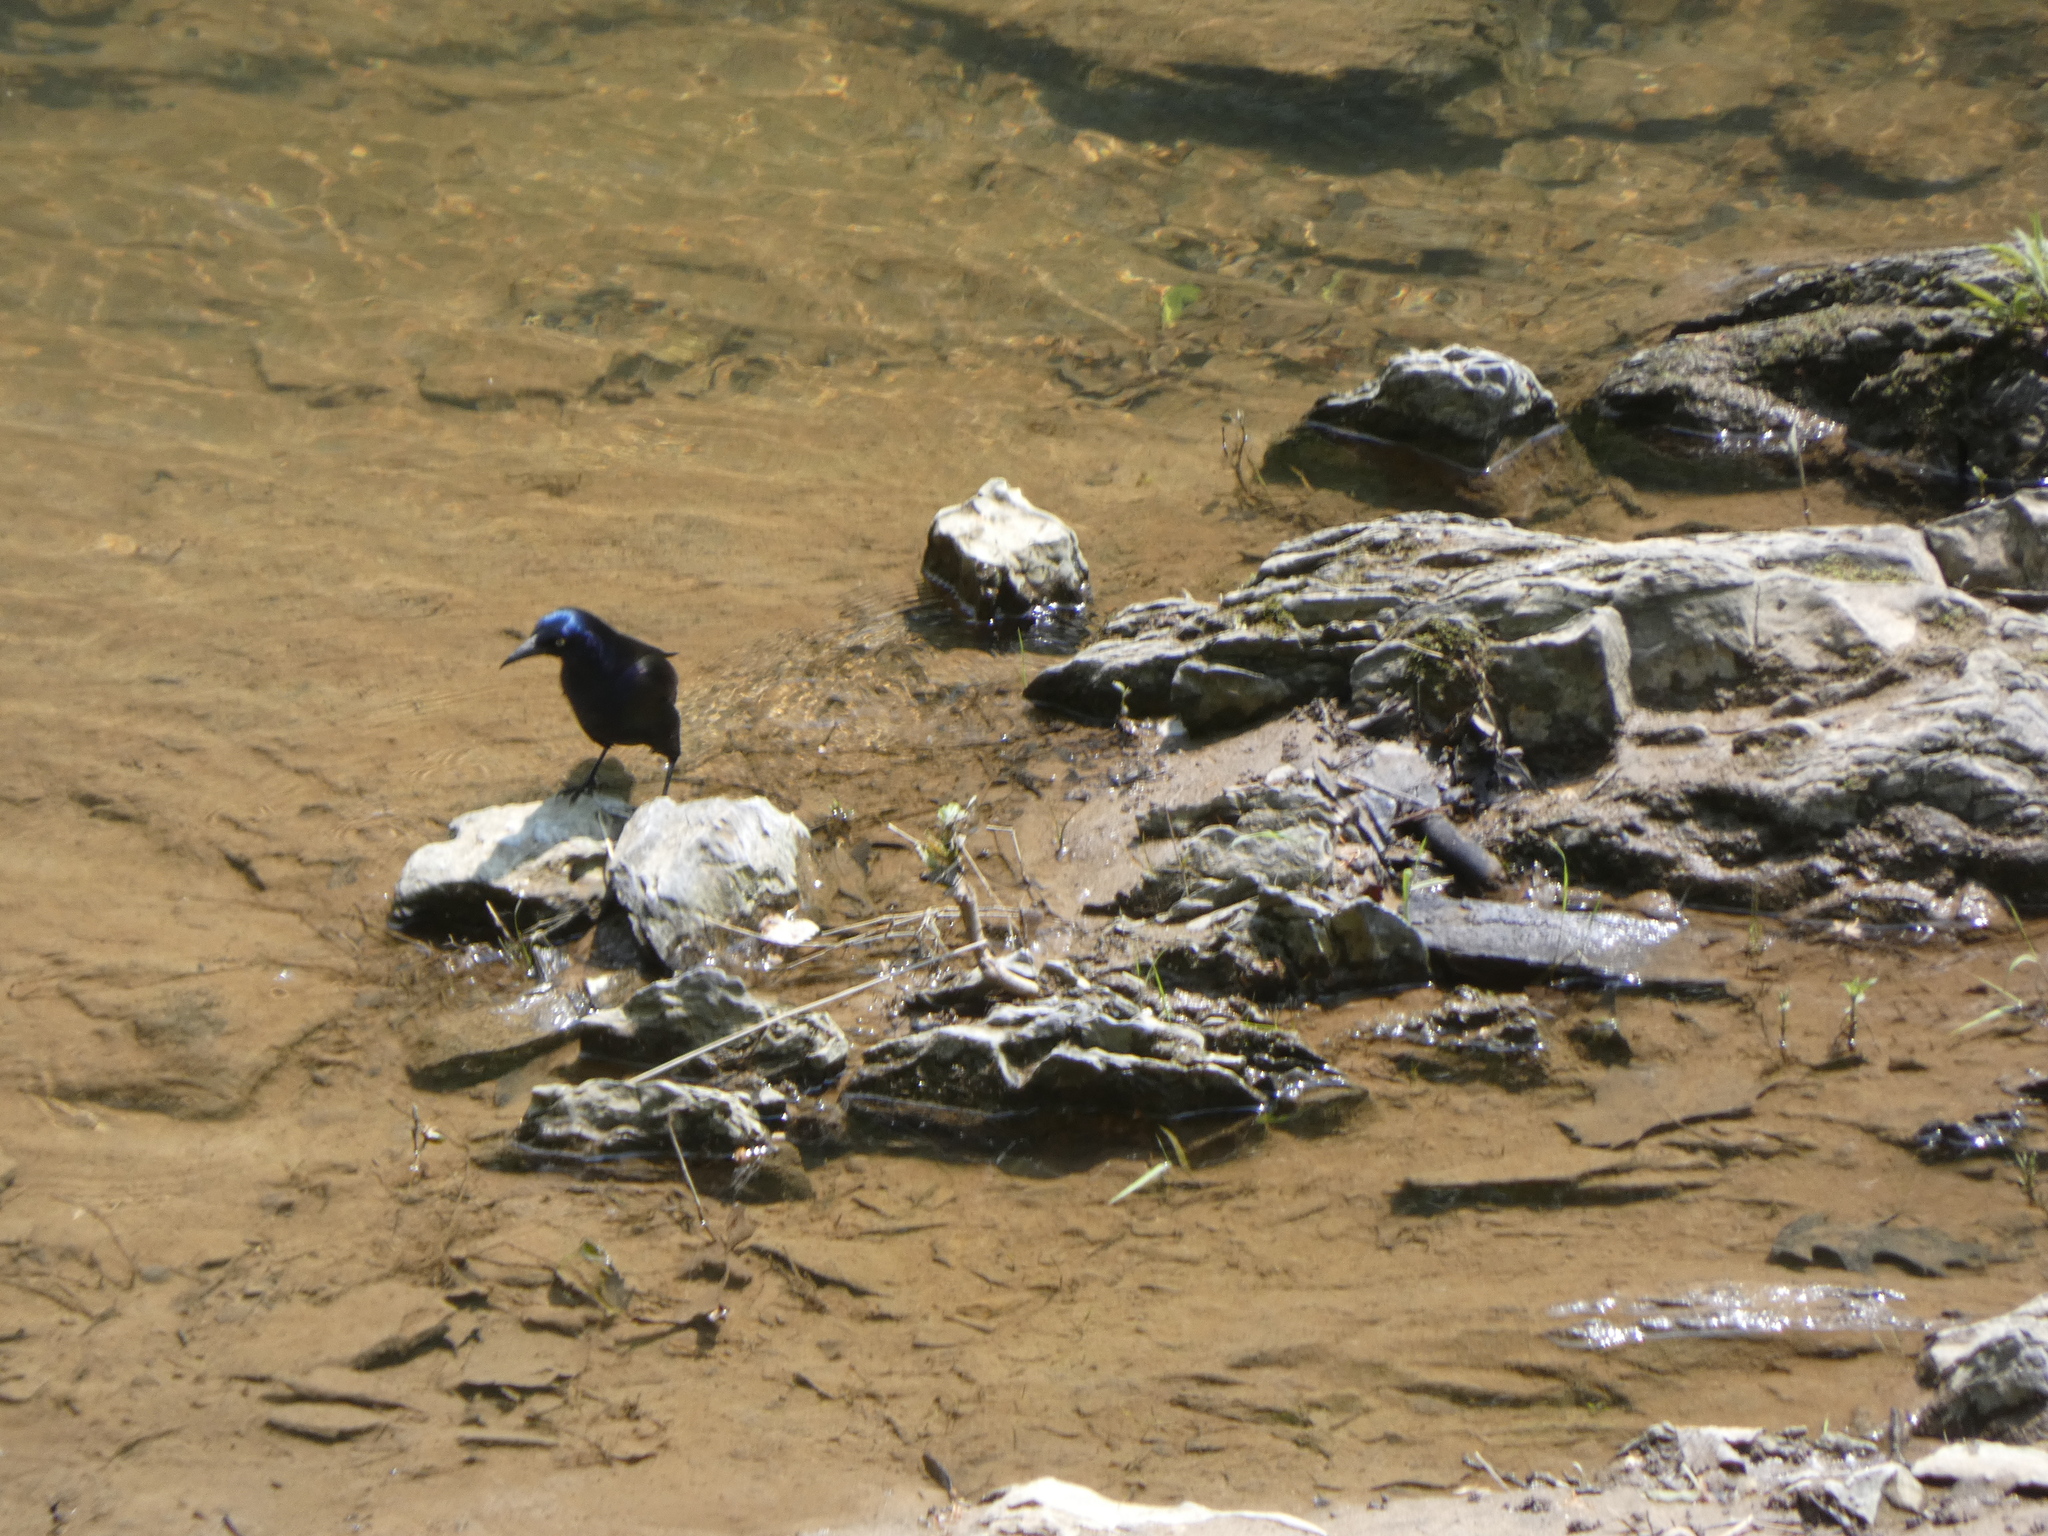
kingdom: Animalia
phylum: Chordata
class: Aves
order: Passeriformes
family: Icteridae
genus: Quiscalus
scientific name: Quiscalus quiscula
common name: Common grackle
